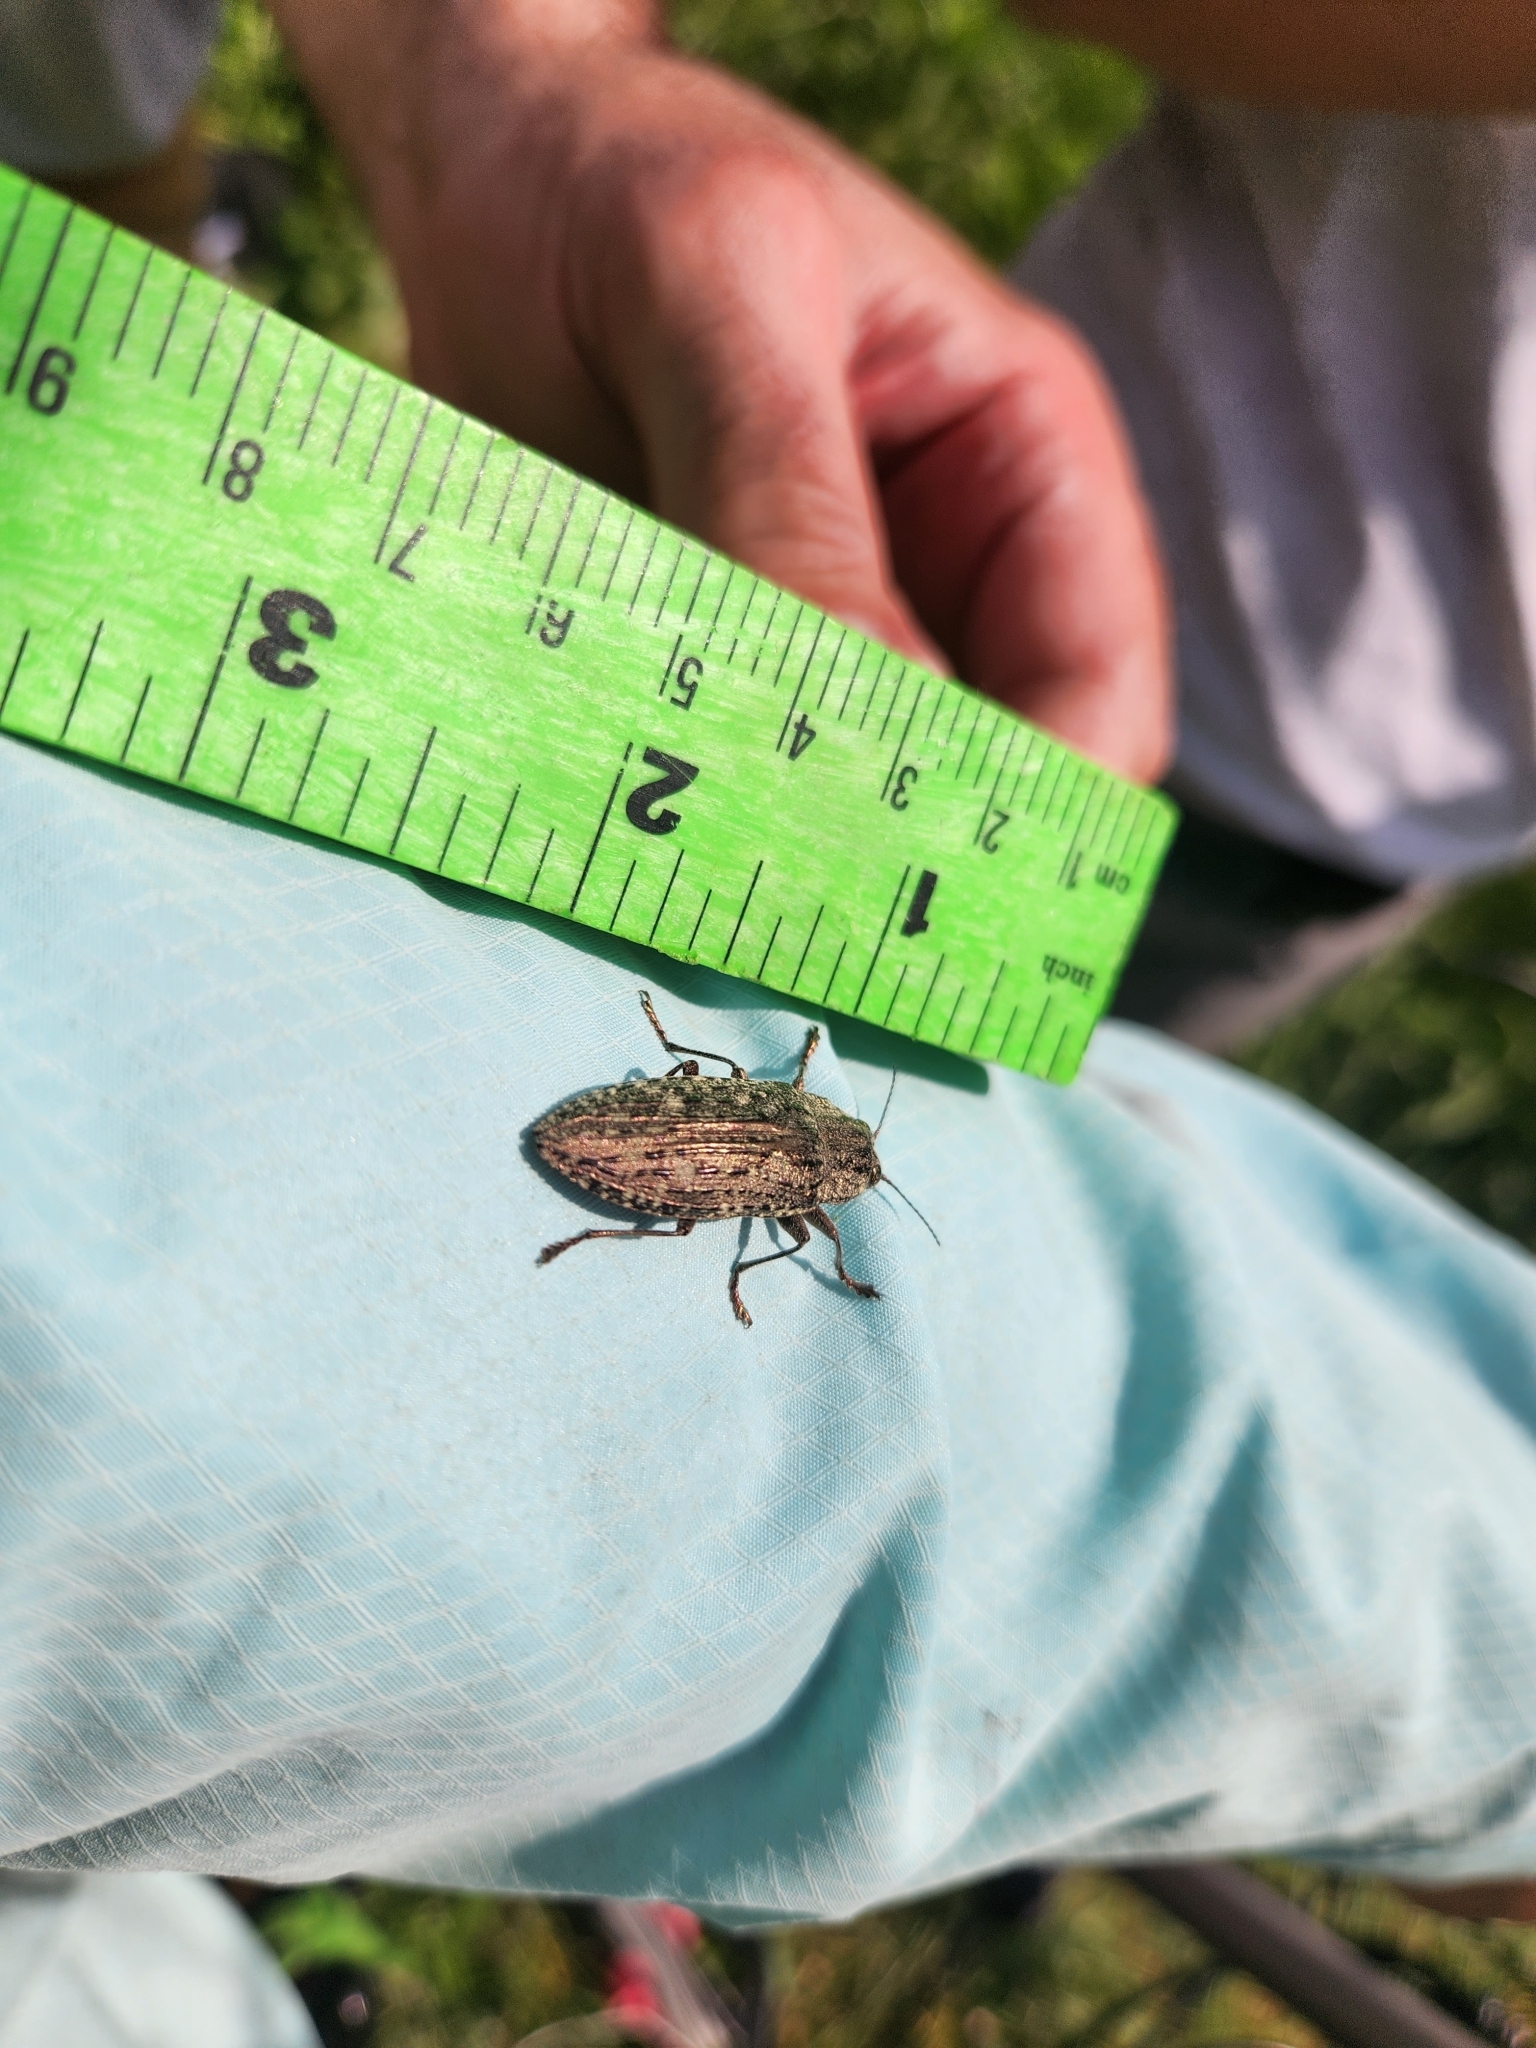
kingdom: Animalia
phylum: Arthropoda
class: Insecta
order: Coleoptera
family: Buprestidae
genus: Texania
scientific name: Texania campestris
